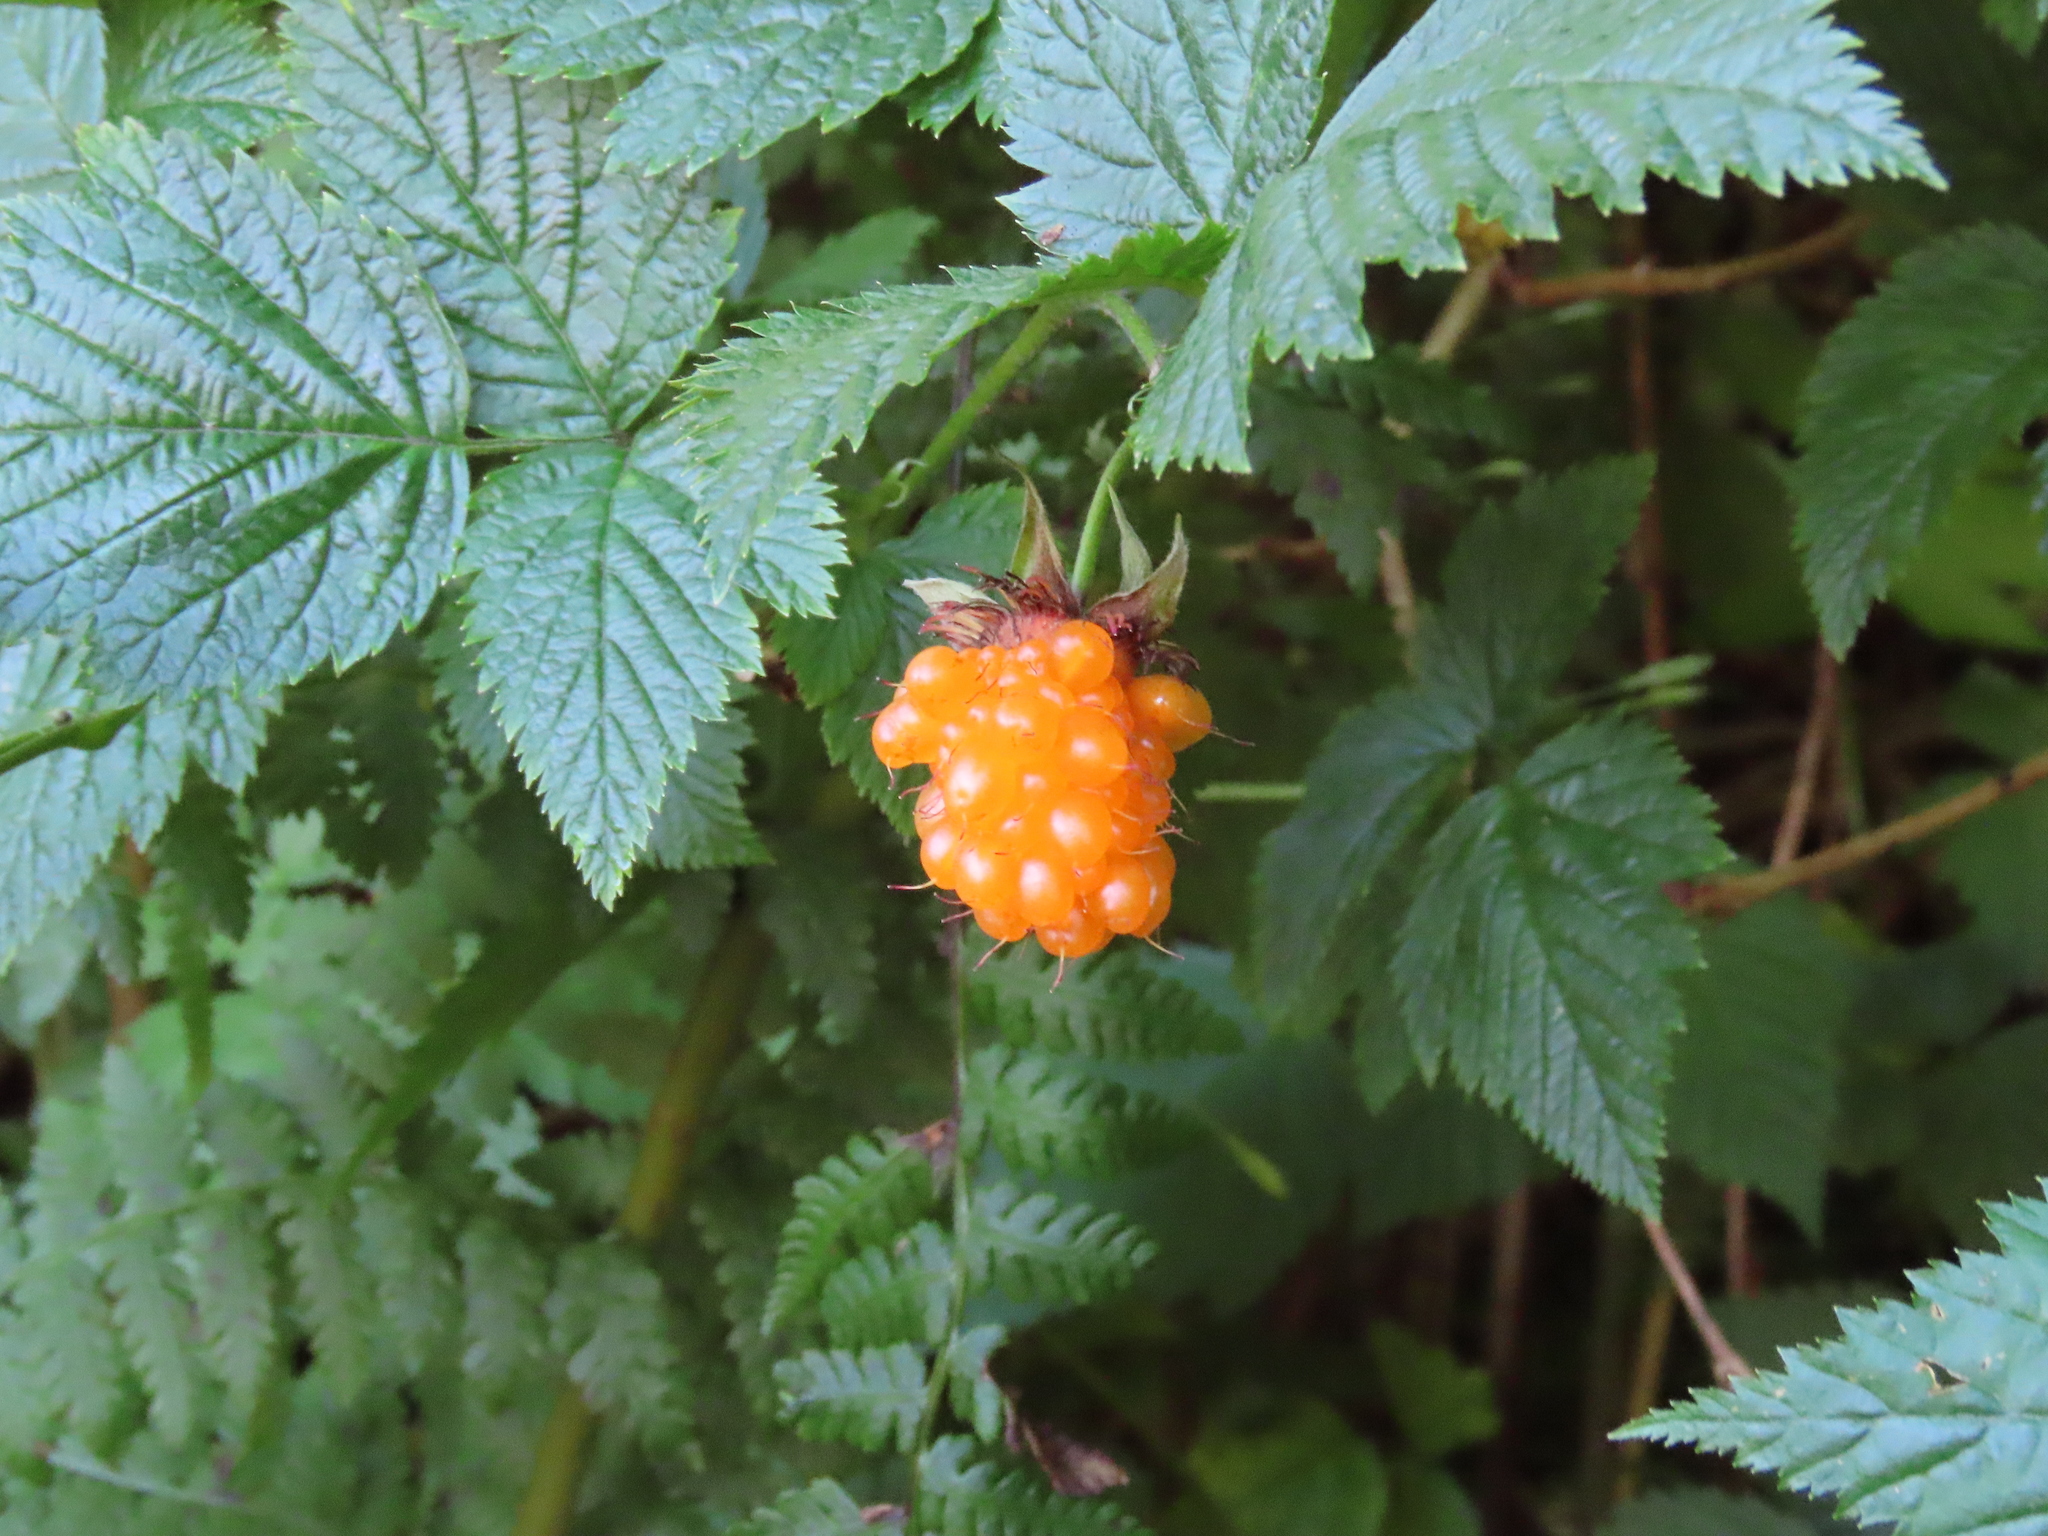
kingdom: Plantae
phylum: Tracheophyta
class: Magnoliopsida
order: Rosales
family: Rosaceae
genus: Rubus
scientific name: Rubus spectabilis
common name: Salmonberry
